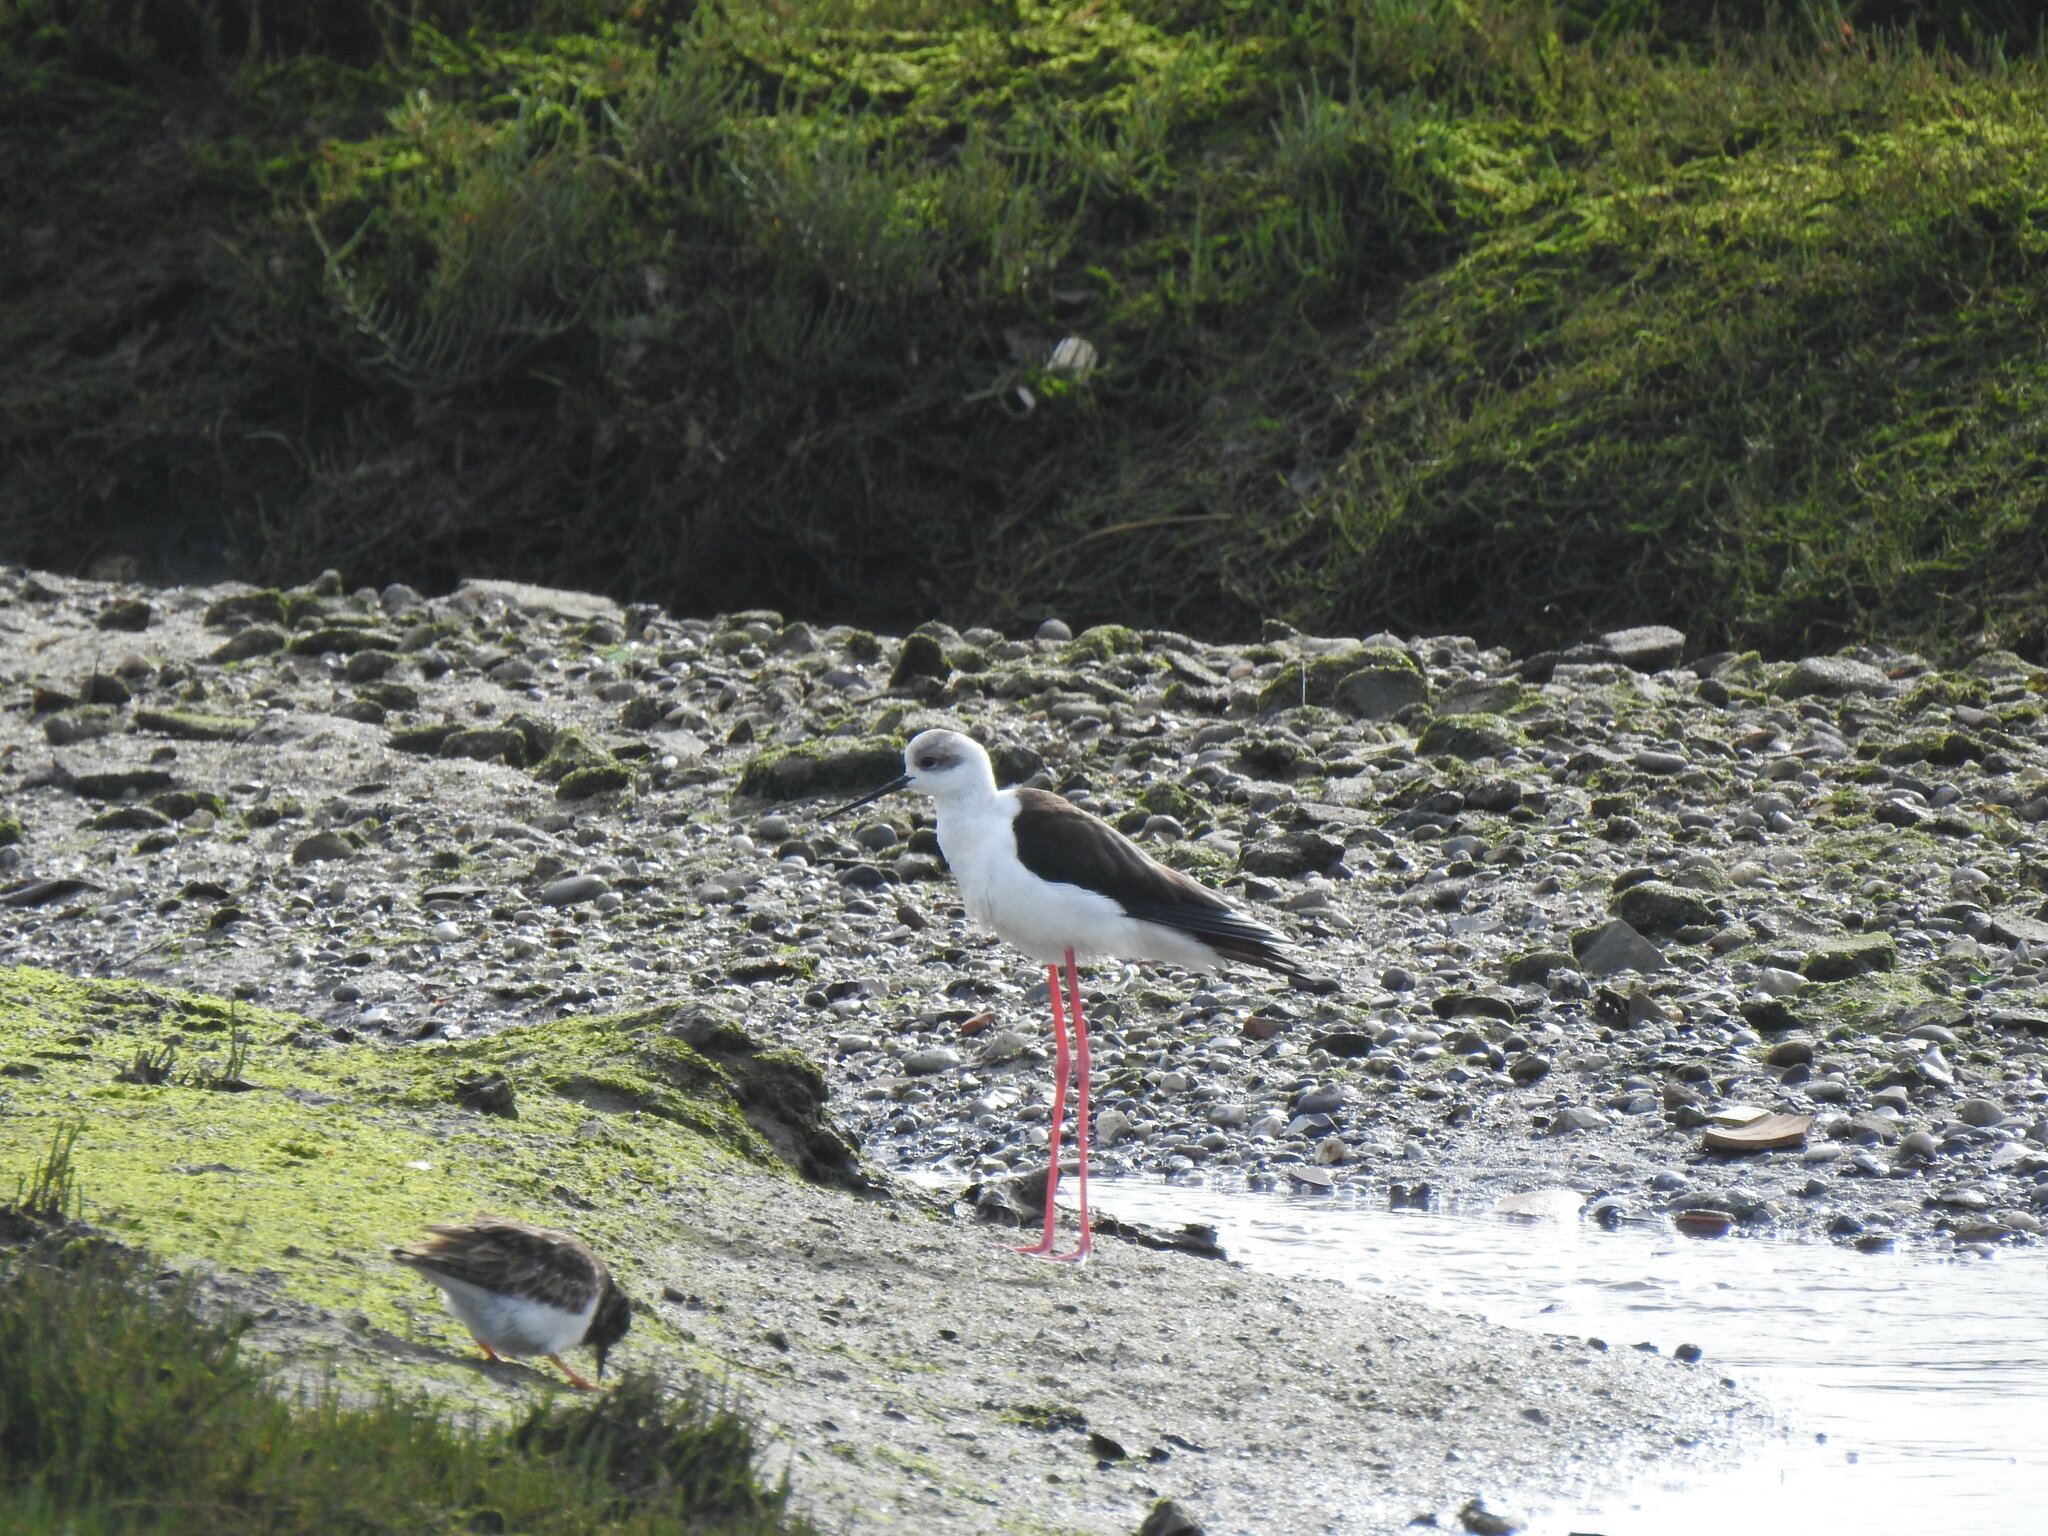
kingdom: Animalia
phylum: Chordata
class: Aves
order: Charadriiformes
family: Recurvirostridae
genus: Himantopus
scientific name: Himantopus himantopus
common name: Black-winged stilt
